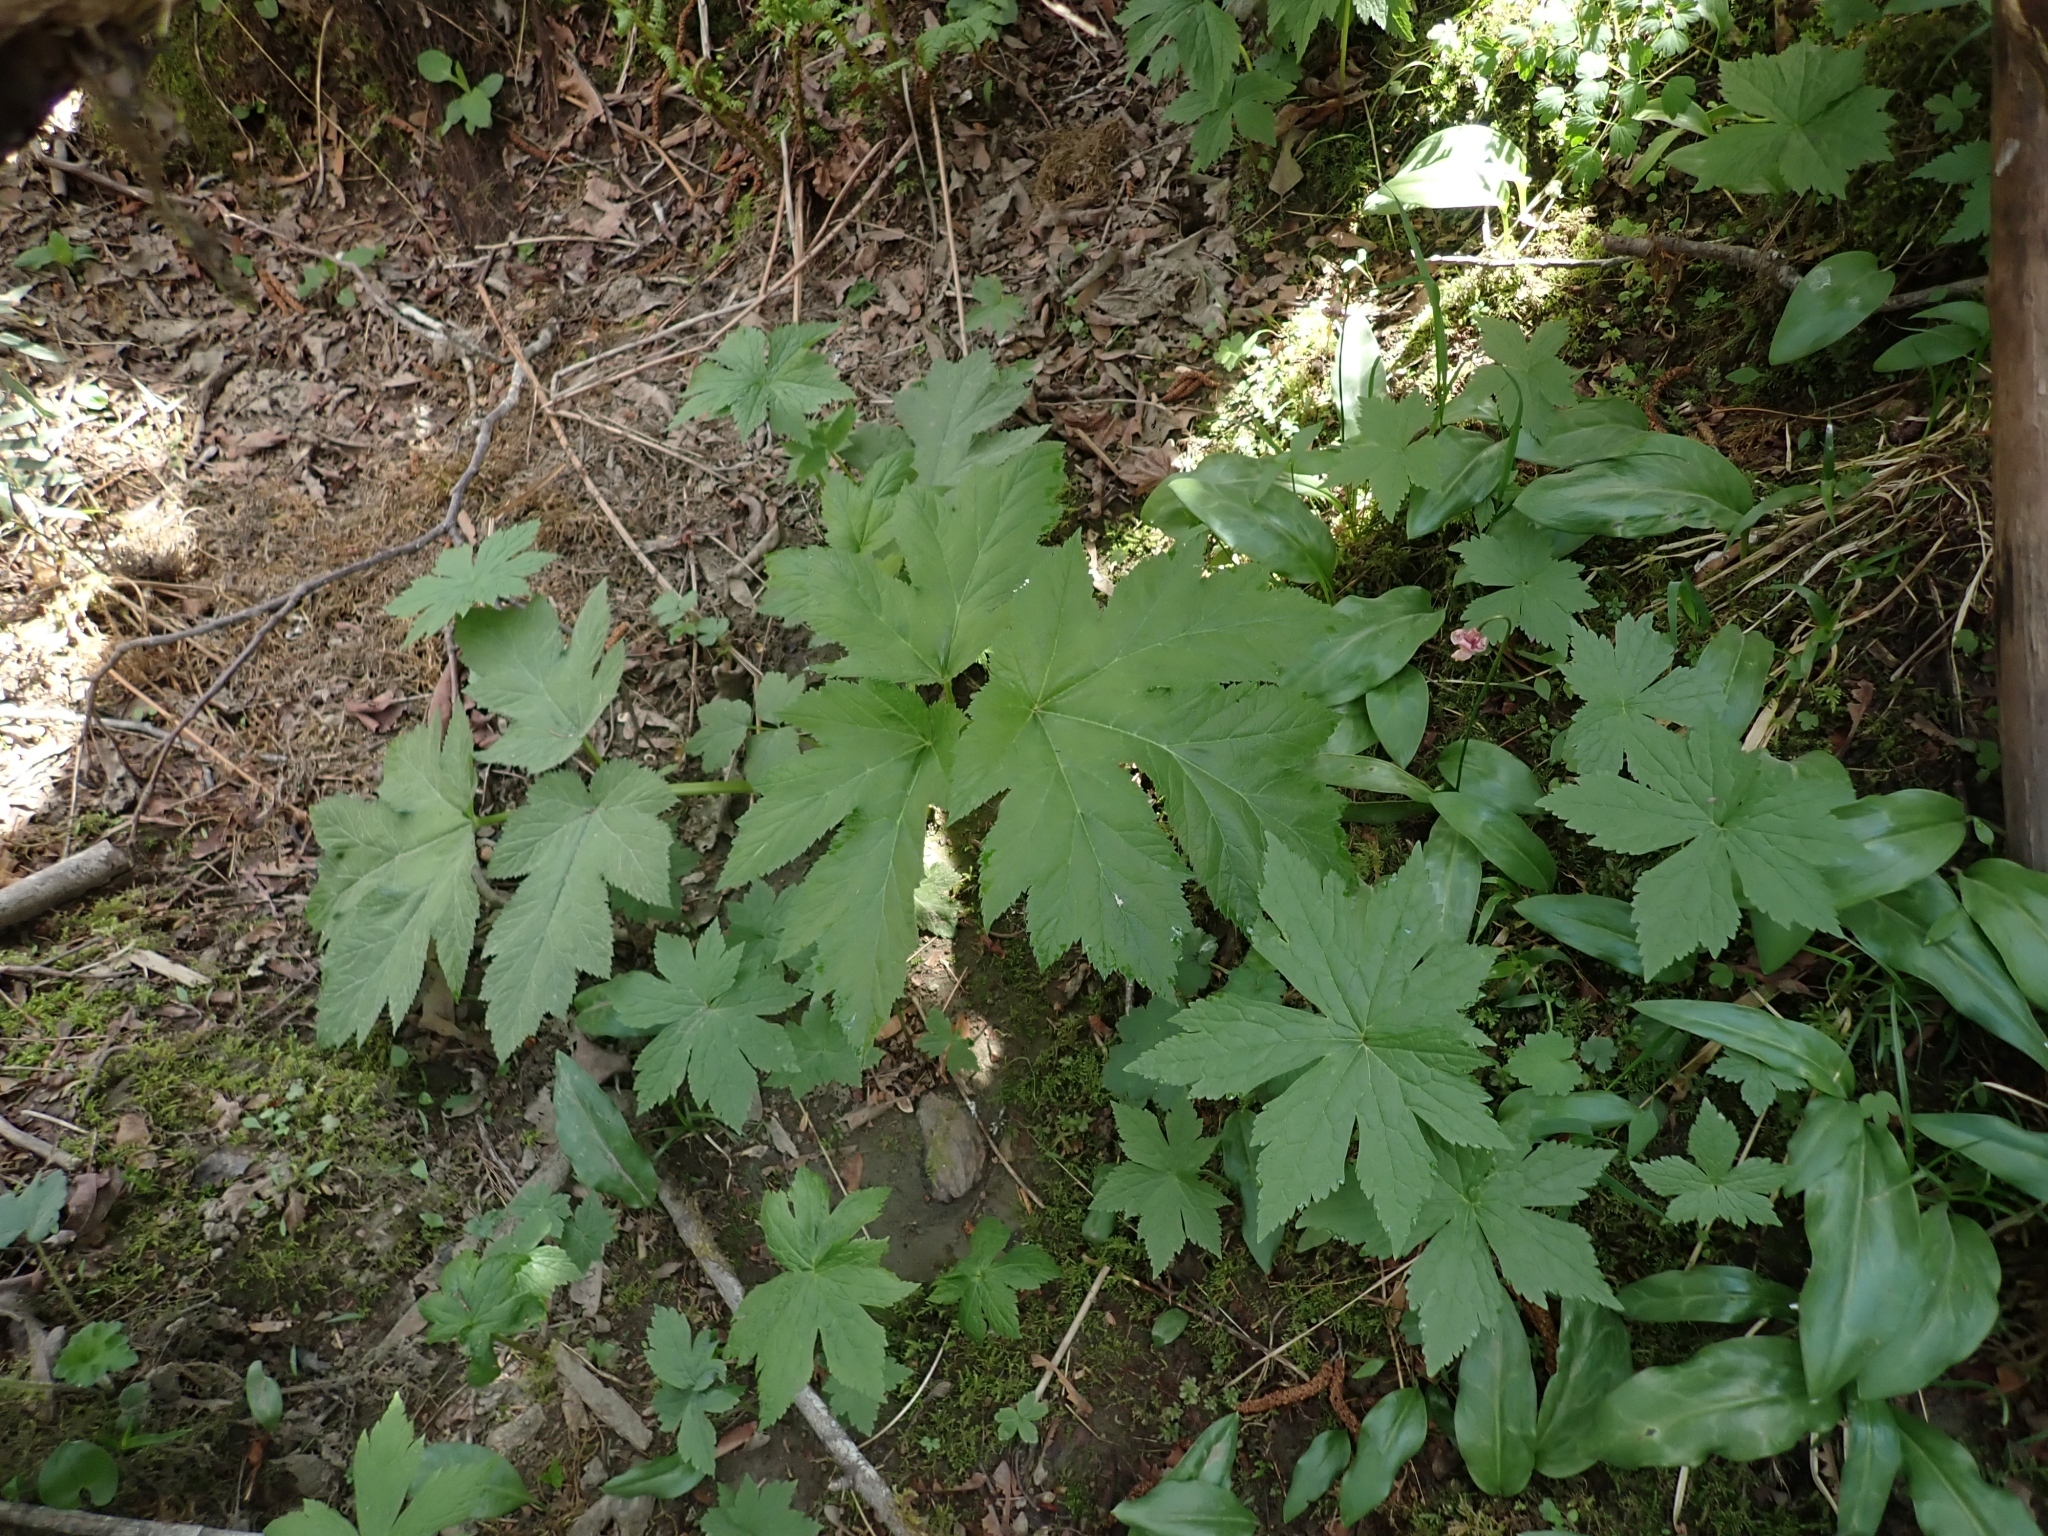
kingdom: Plantae
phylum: Tracheophyta
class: Magnoliopsida
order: Apiales
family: Apiaceae
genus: Heracleum
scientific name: Heracleum maximum
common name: American cow parsnip
